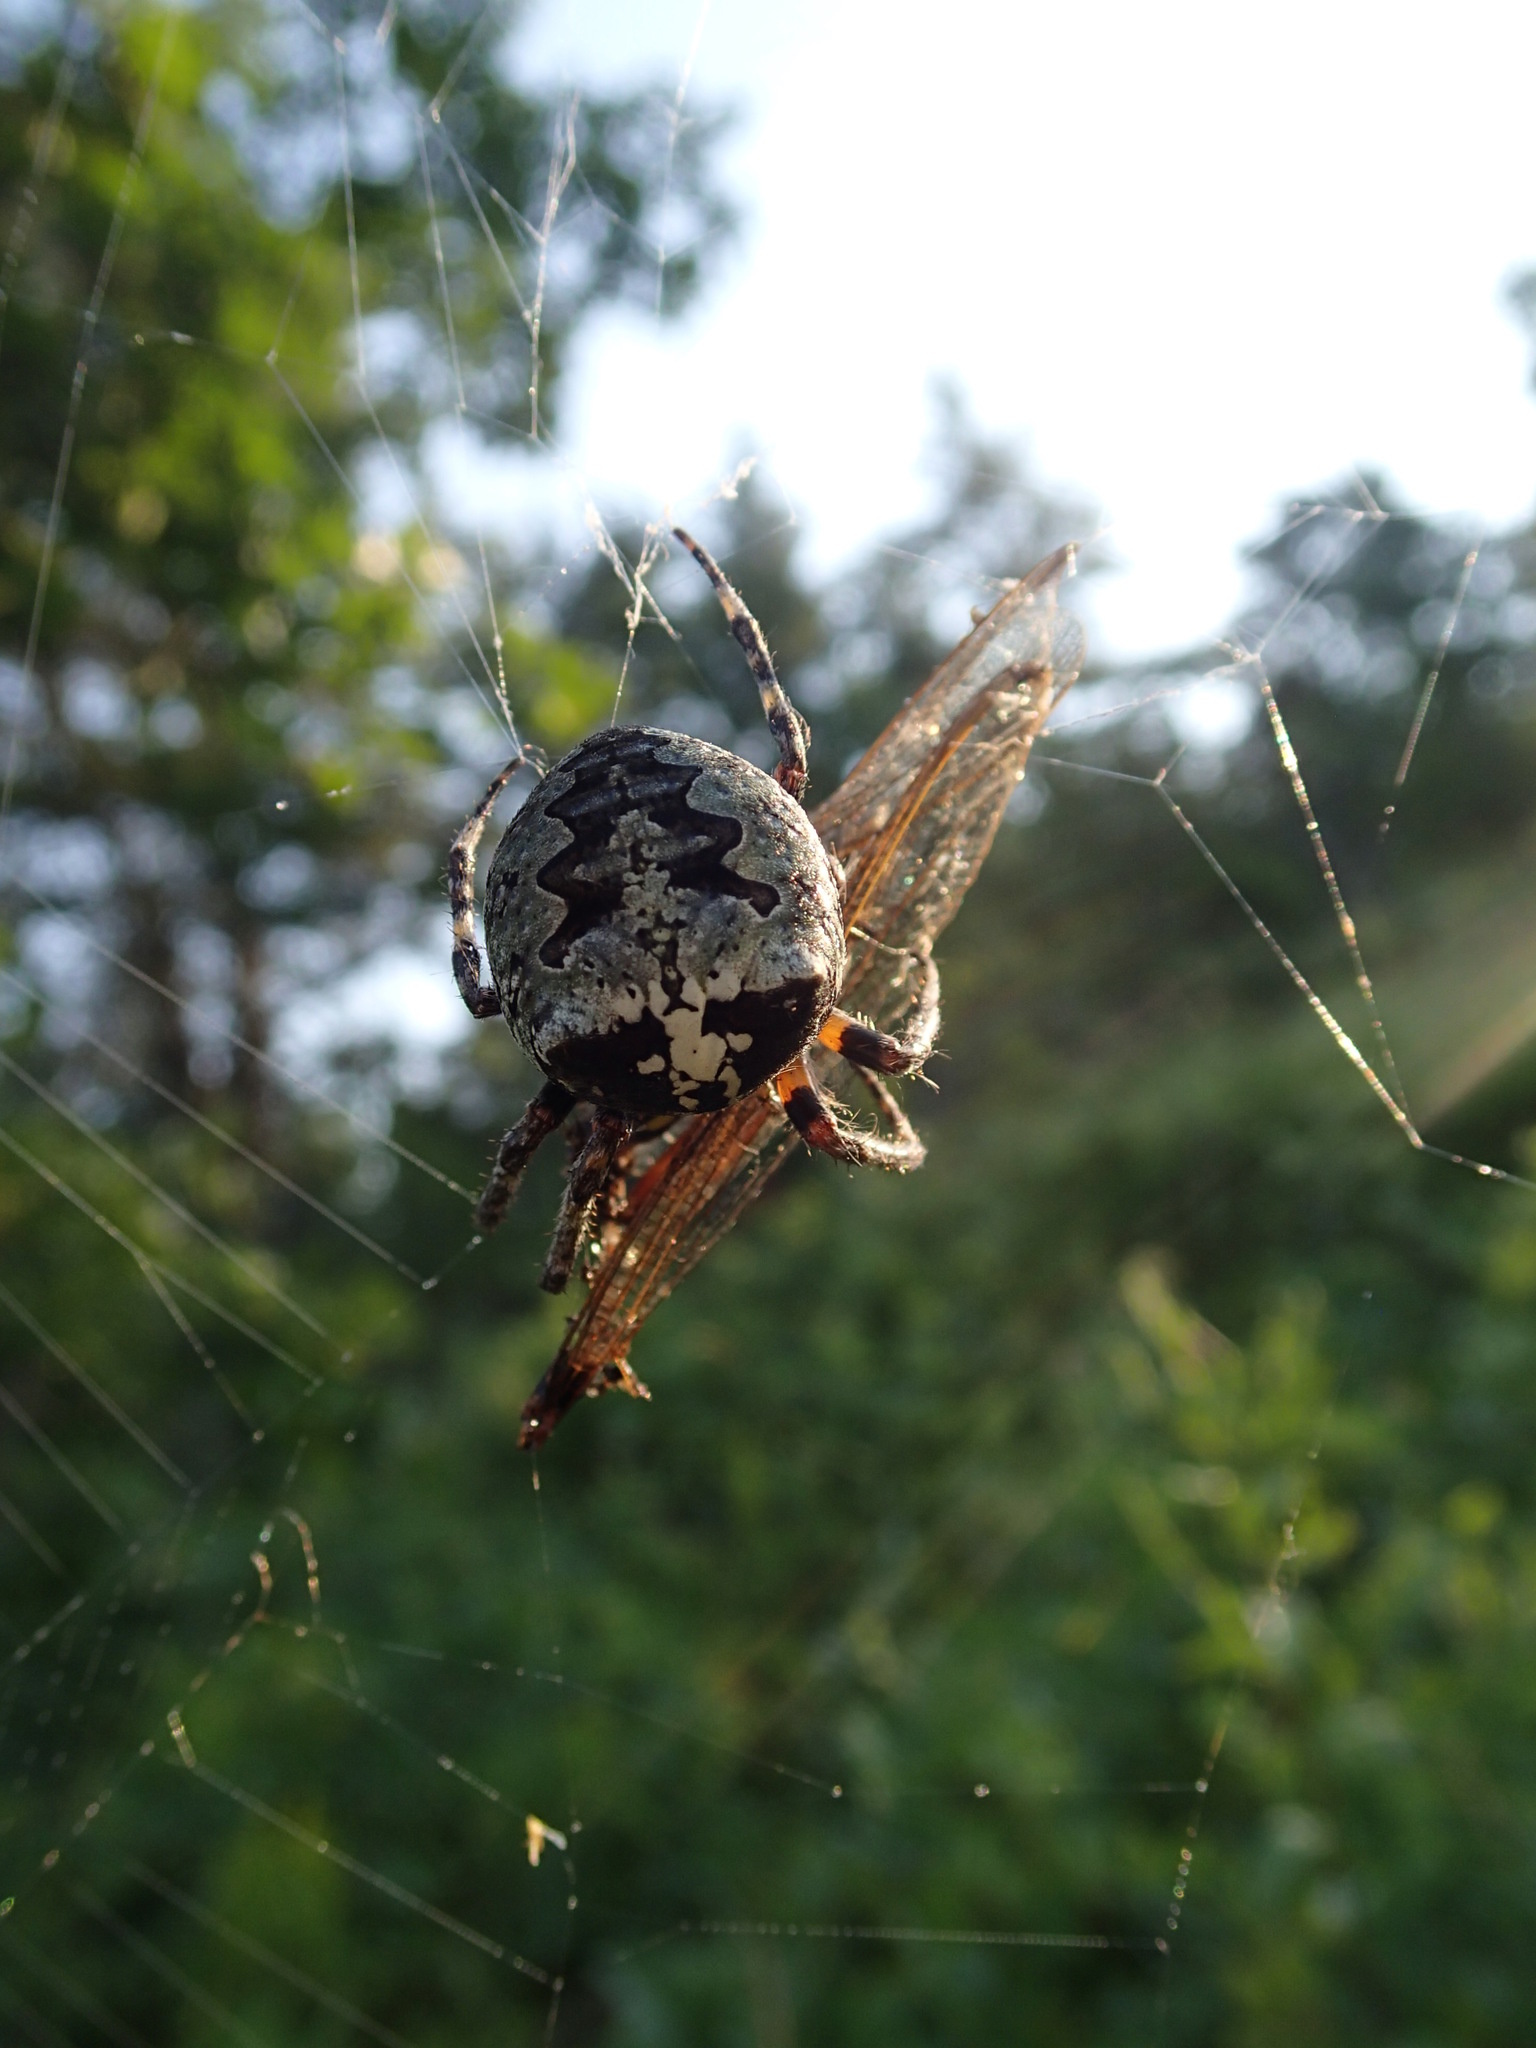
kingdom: Animalia
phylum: Arthropoda
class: Arachnida
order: Araneae
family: Araneidae
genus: Araneus
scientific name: Araneus bicentenarius
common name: Giant lichen orbweaver
